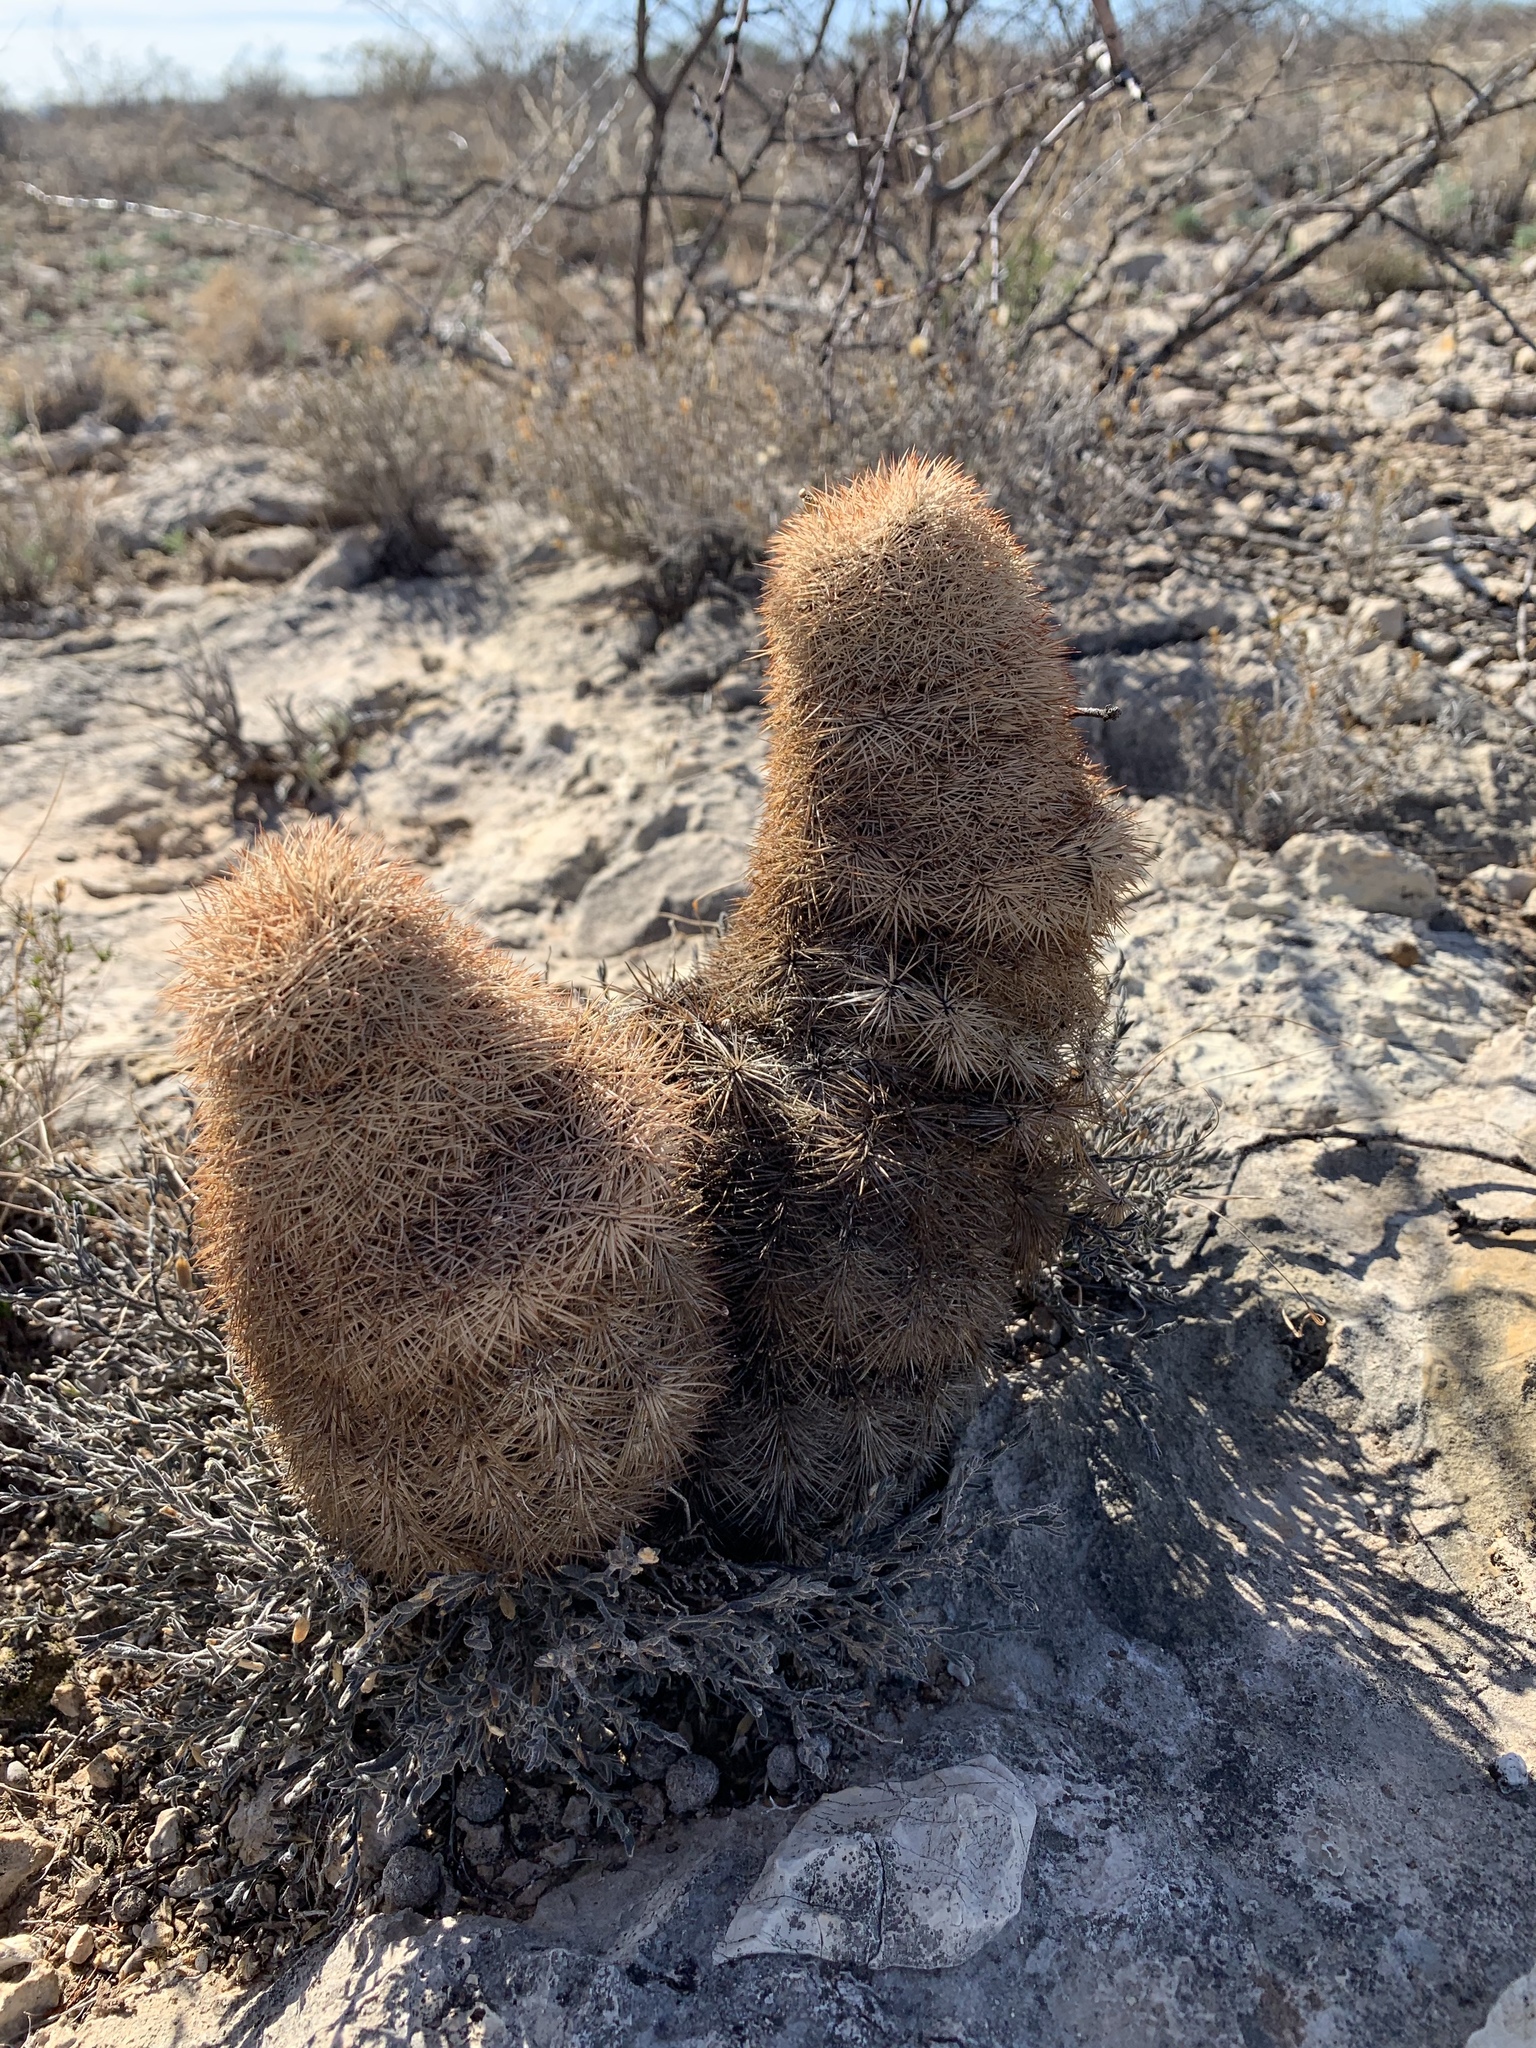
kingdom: Plantae
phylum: Tracheophyta
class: Magnoliopsida
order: Caryophyllales
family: Cactaceae
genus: Echinocereus
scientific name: Echinocereus dasyacanthus
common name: Spiny hedgehog cactus
